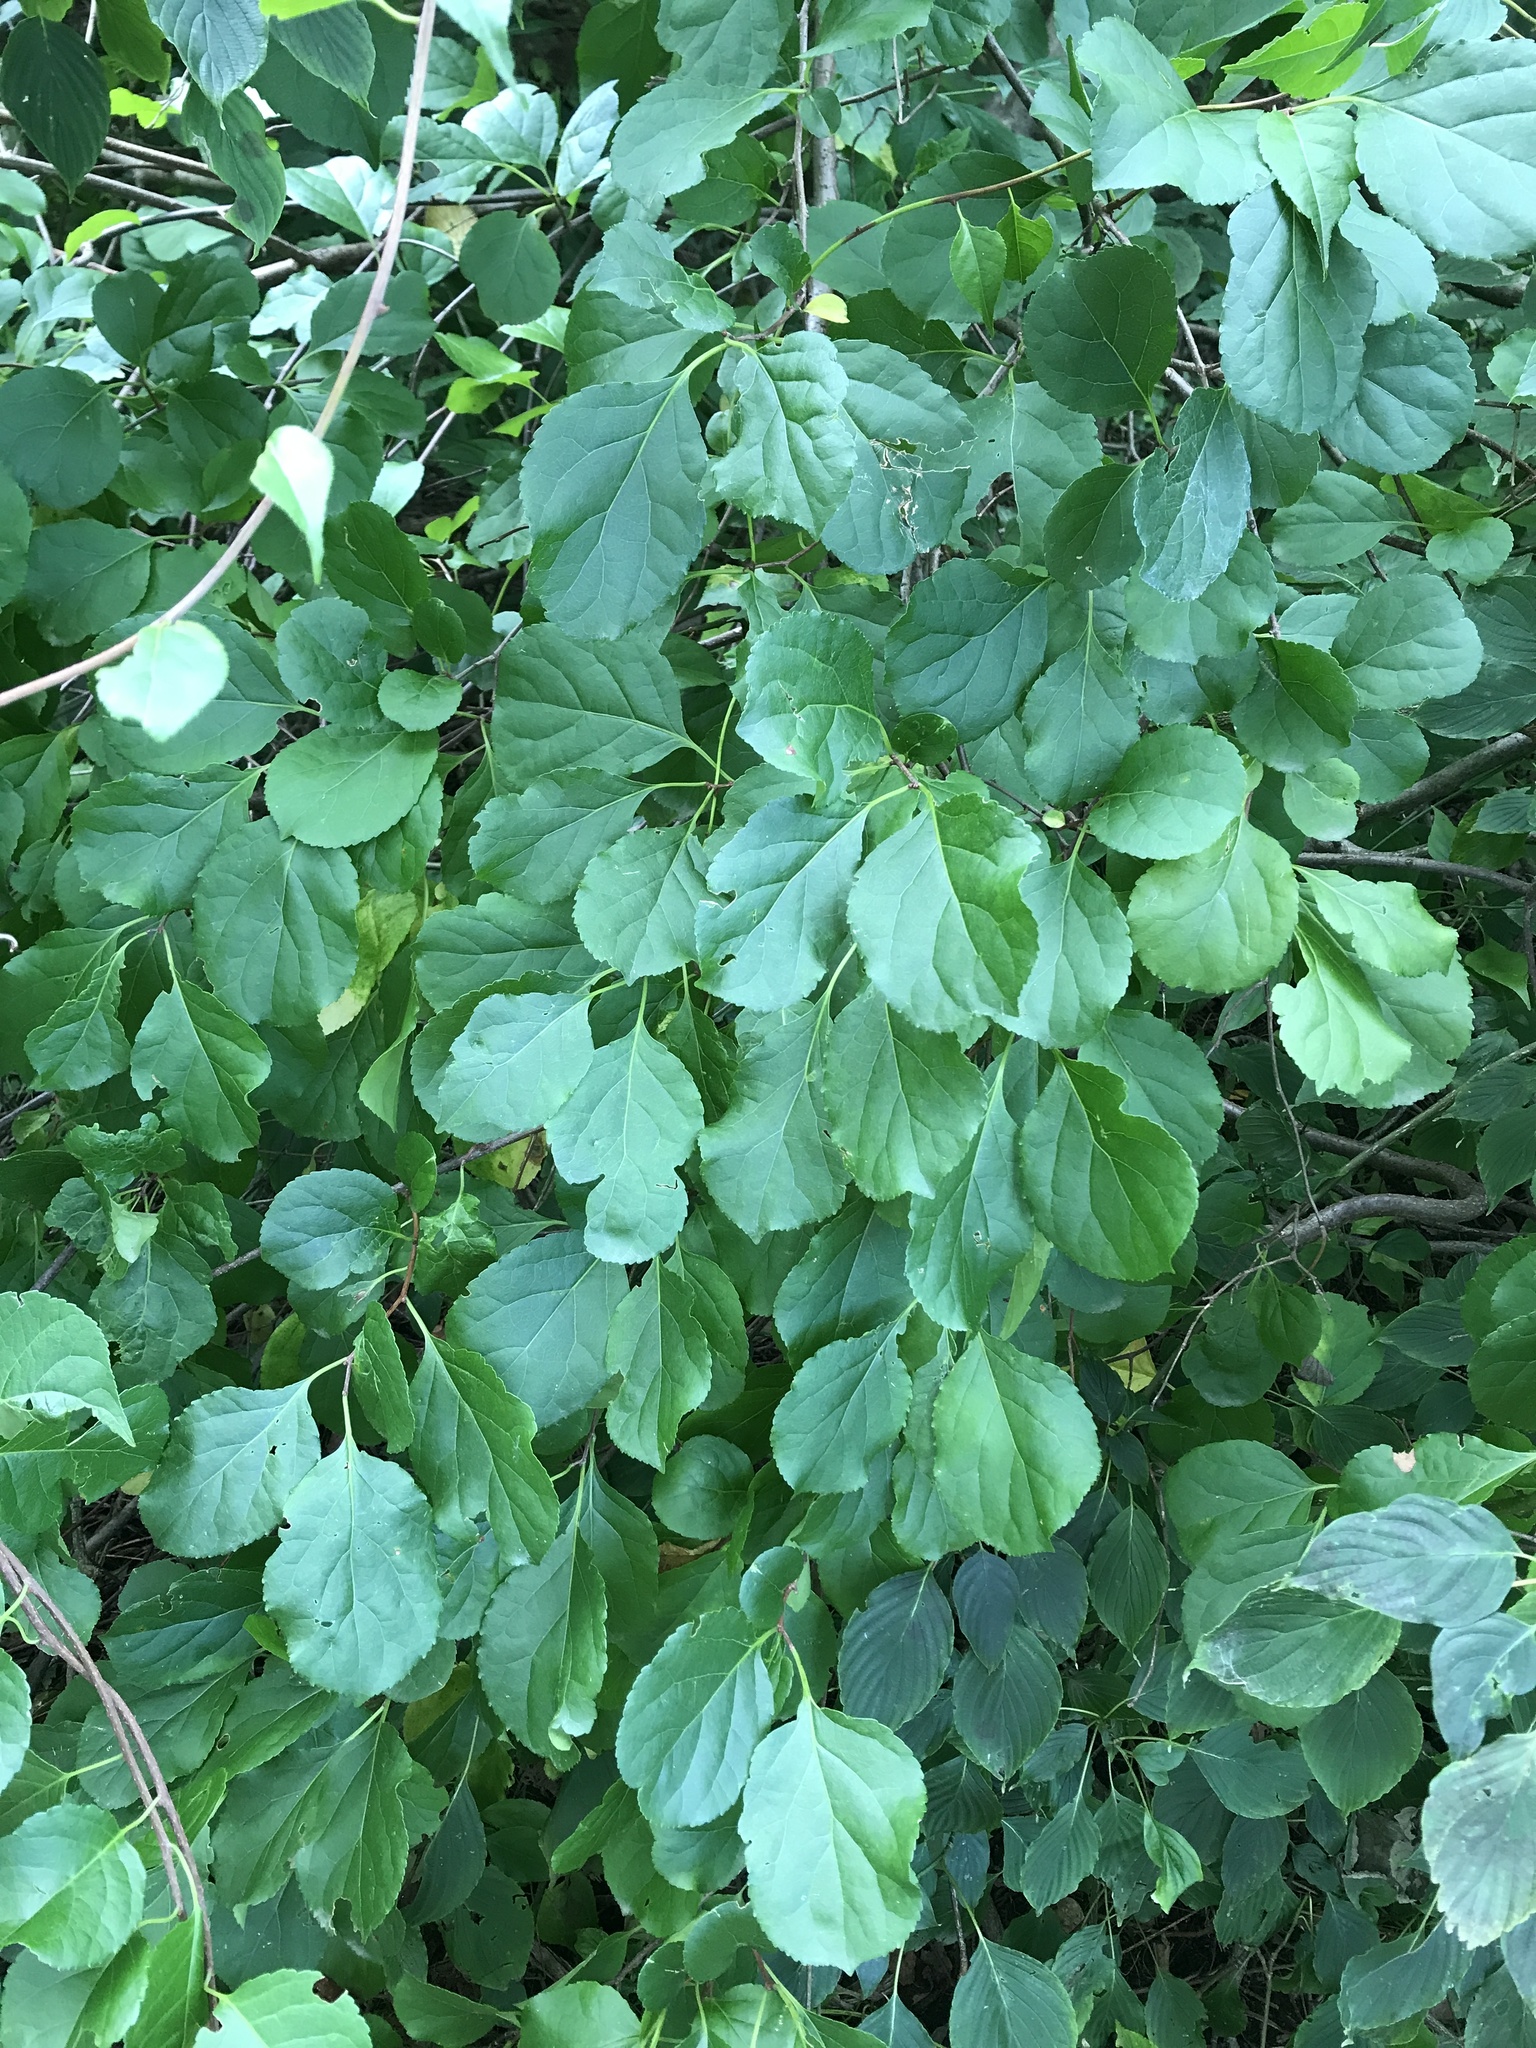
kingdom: Plantae
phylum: Tracheophyta
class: Magnoliopsida
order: Celastrales
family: Celastraceae
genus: Celastrus
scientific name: Celastrus orbiculatus
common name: Oriental bittersweet
